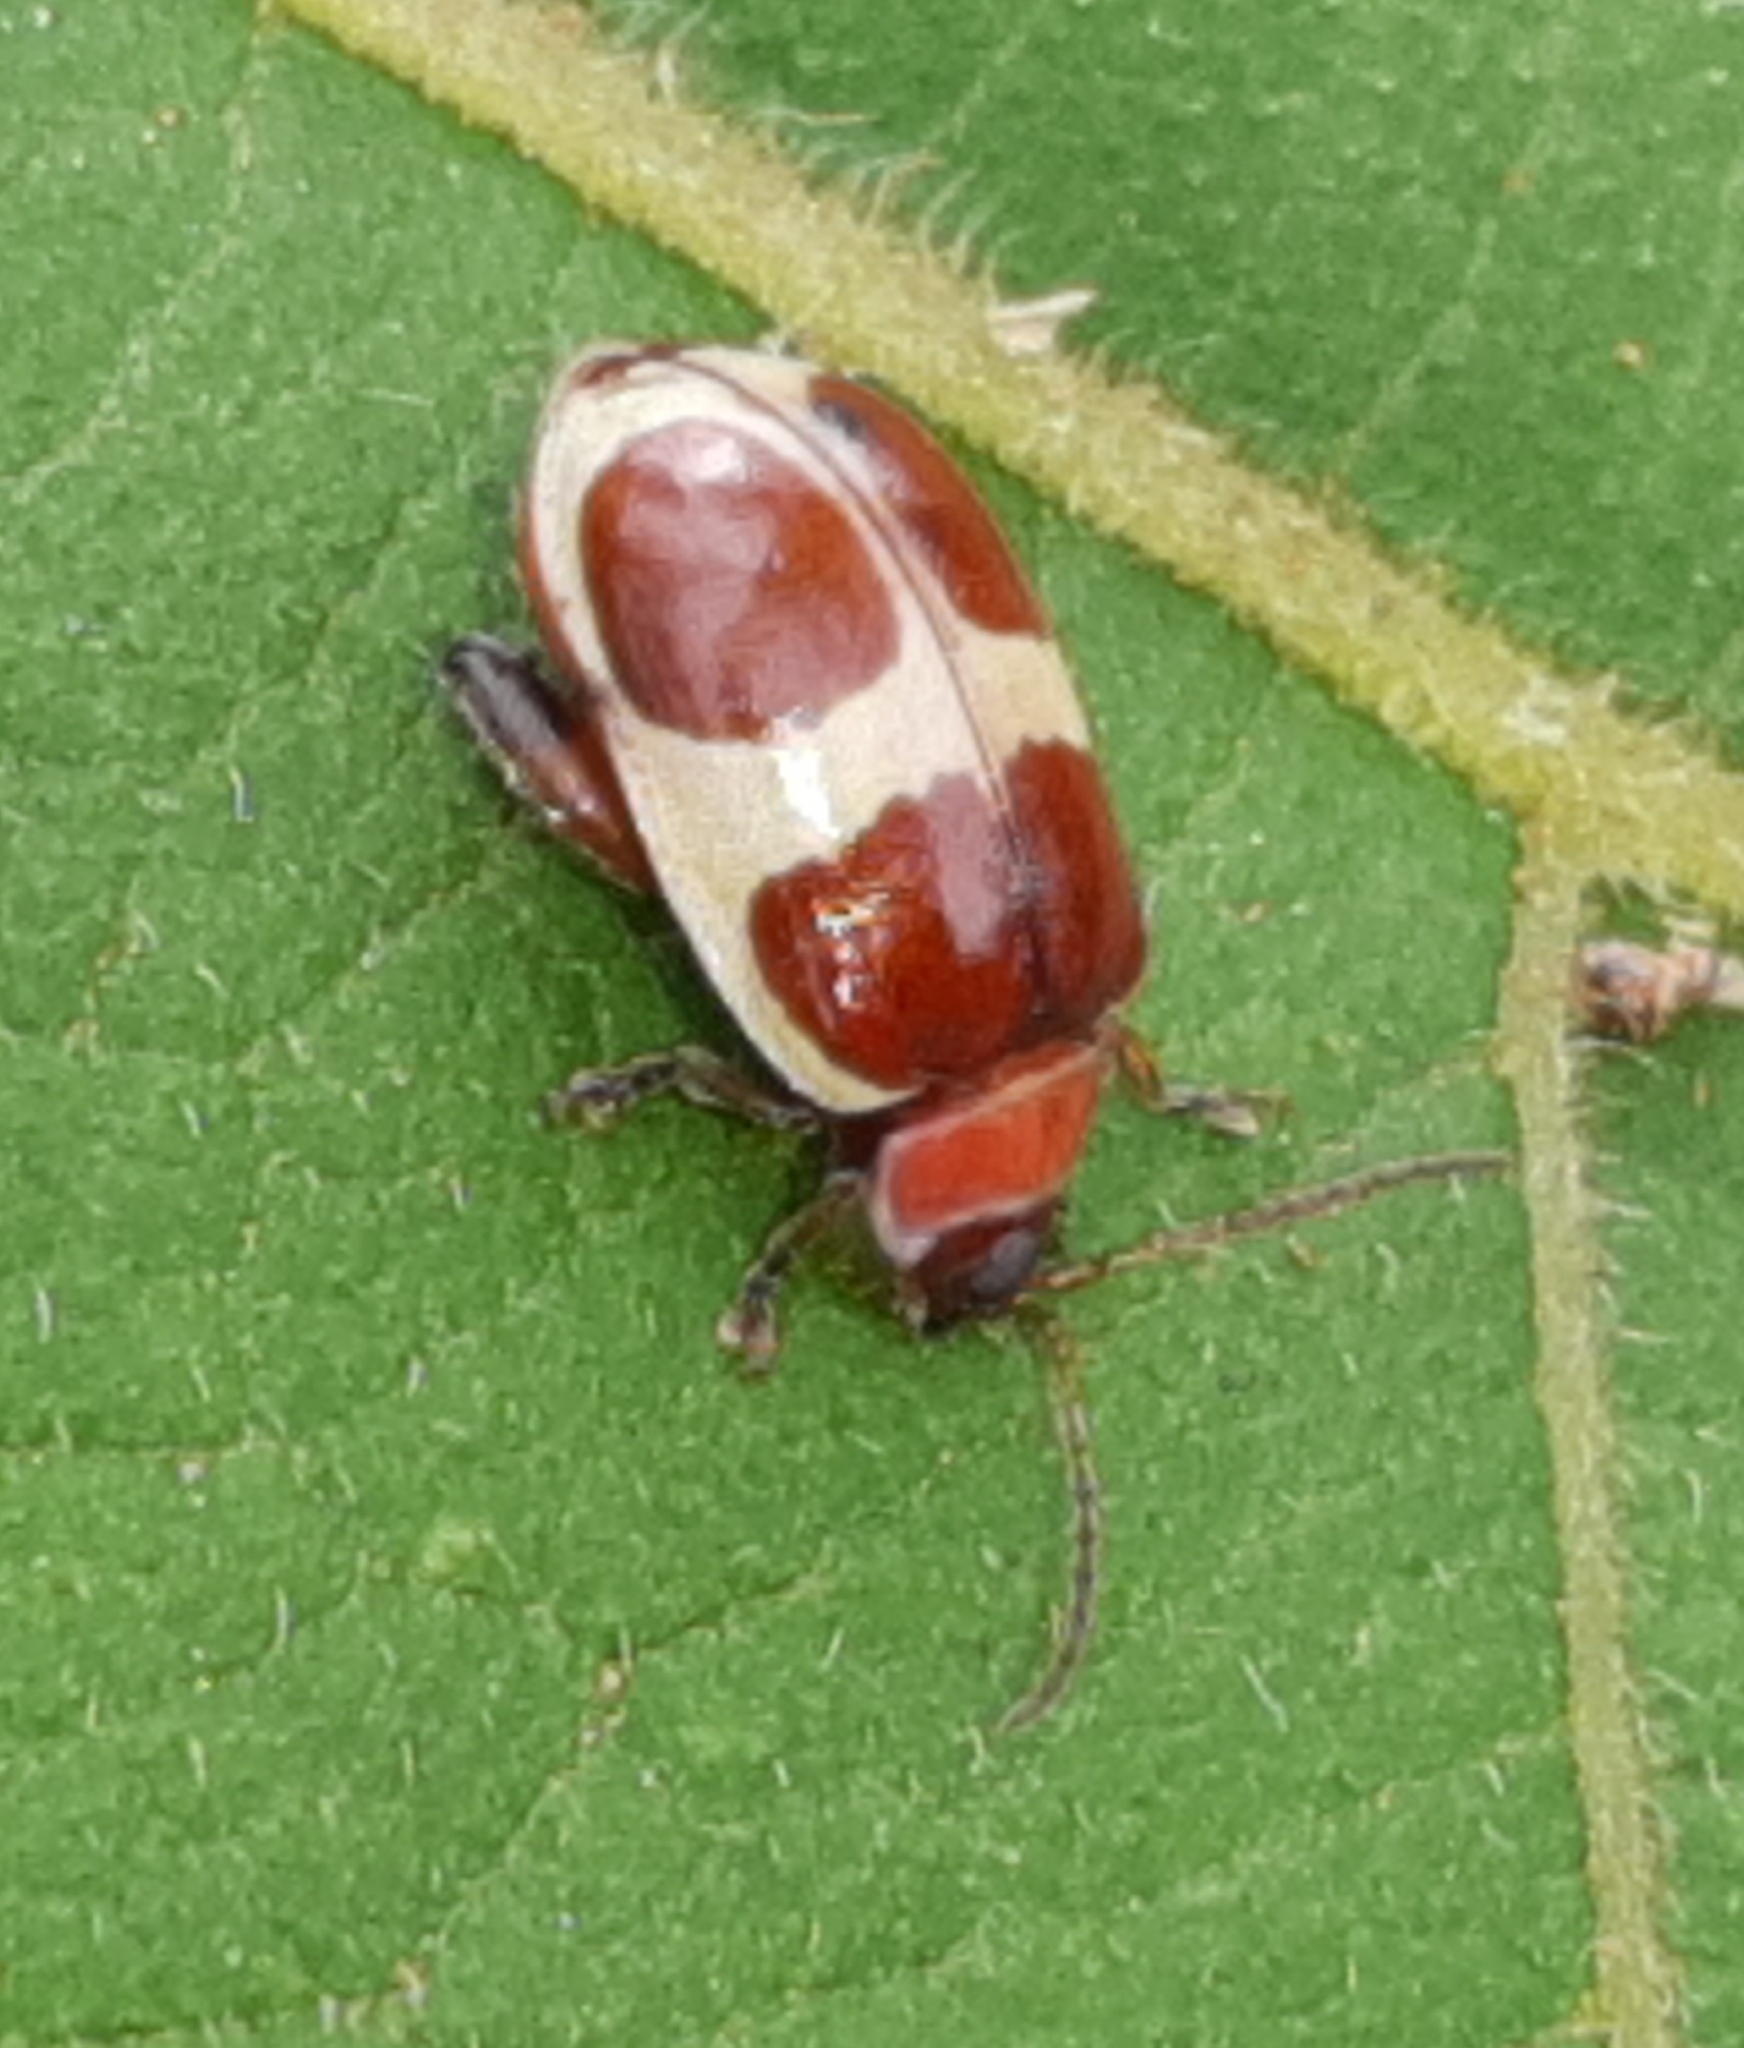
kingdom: Animalia
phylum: Arthropoda
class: Insecta
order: Coleoptera
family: Chrysomelidae
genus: Alagoasa
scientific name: Alagoasa
